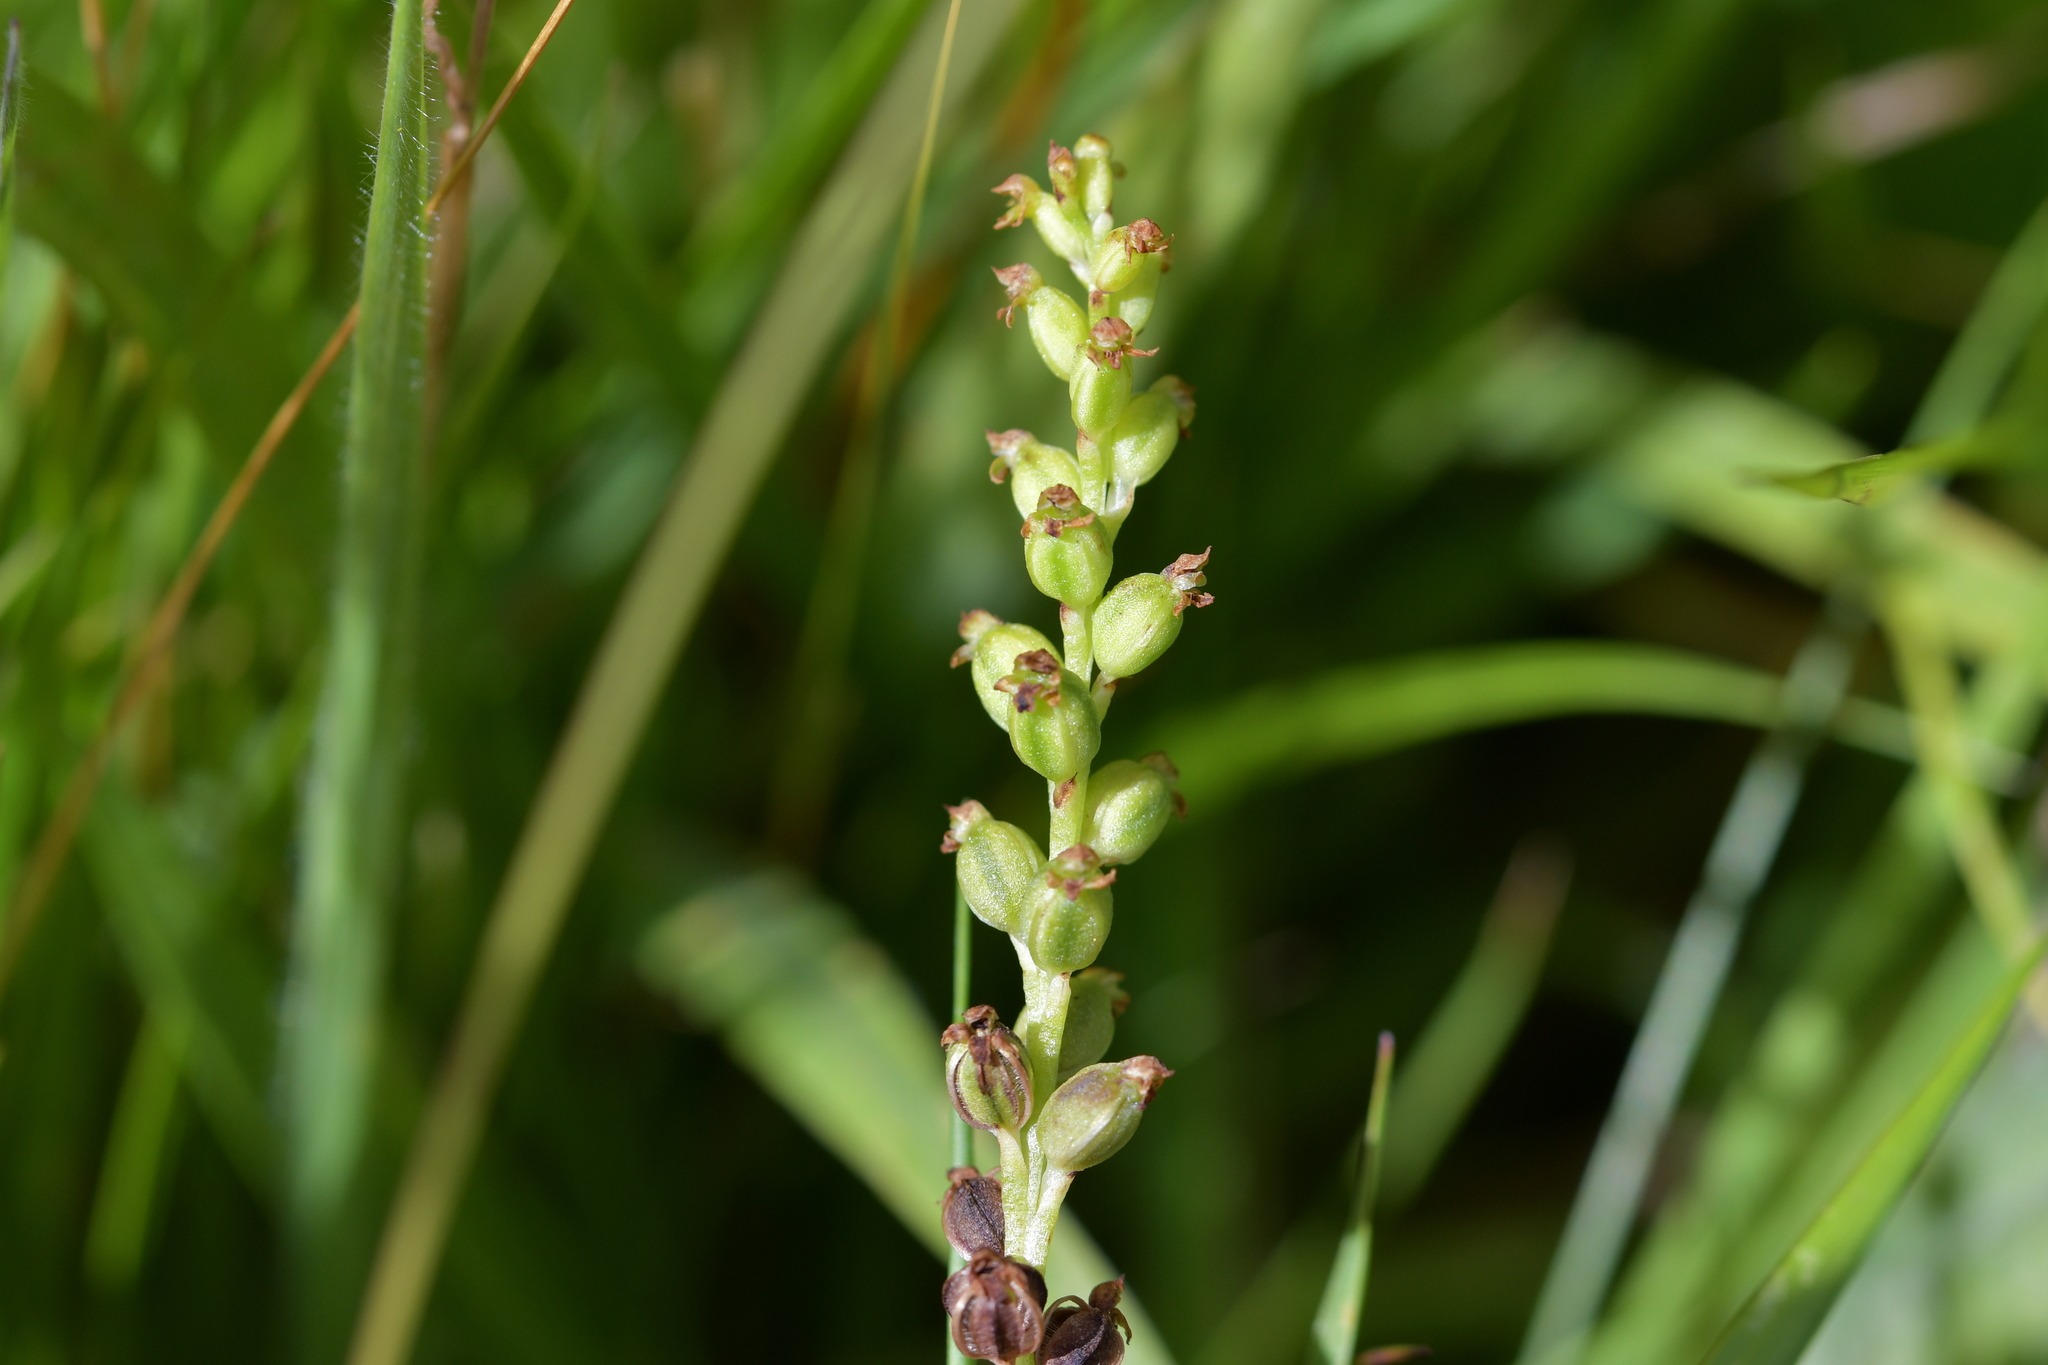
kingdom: Plantae
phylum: Tracheophyta
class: Liliopsida
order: Asparagales
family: Orchidaceae
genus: Microtis
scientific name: Microtis unifolia
